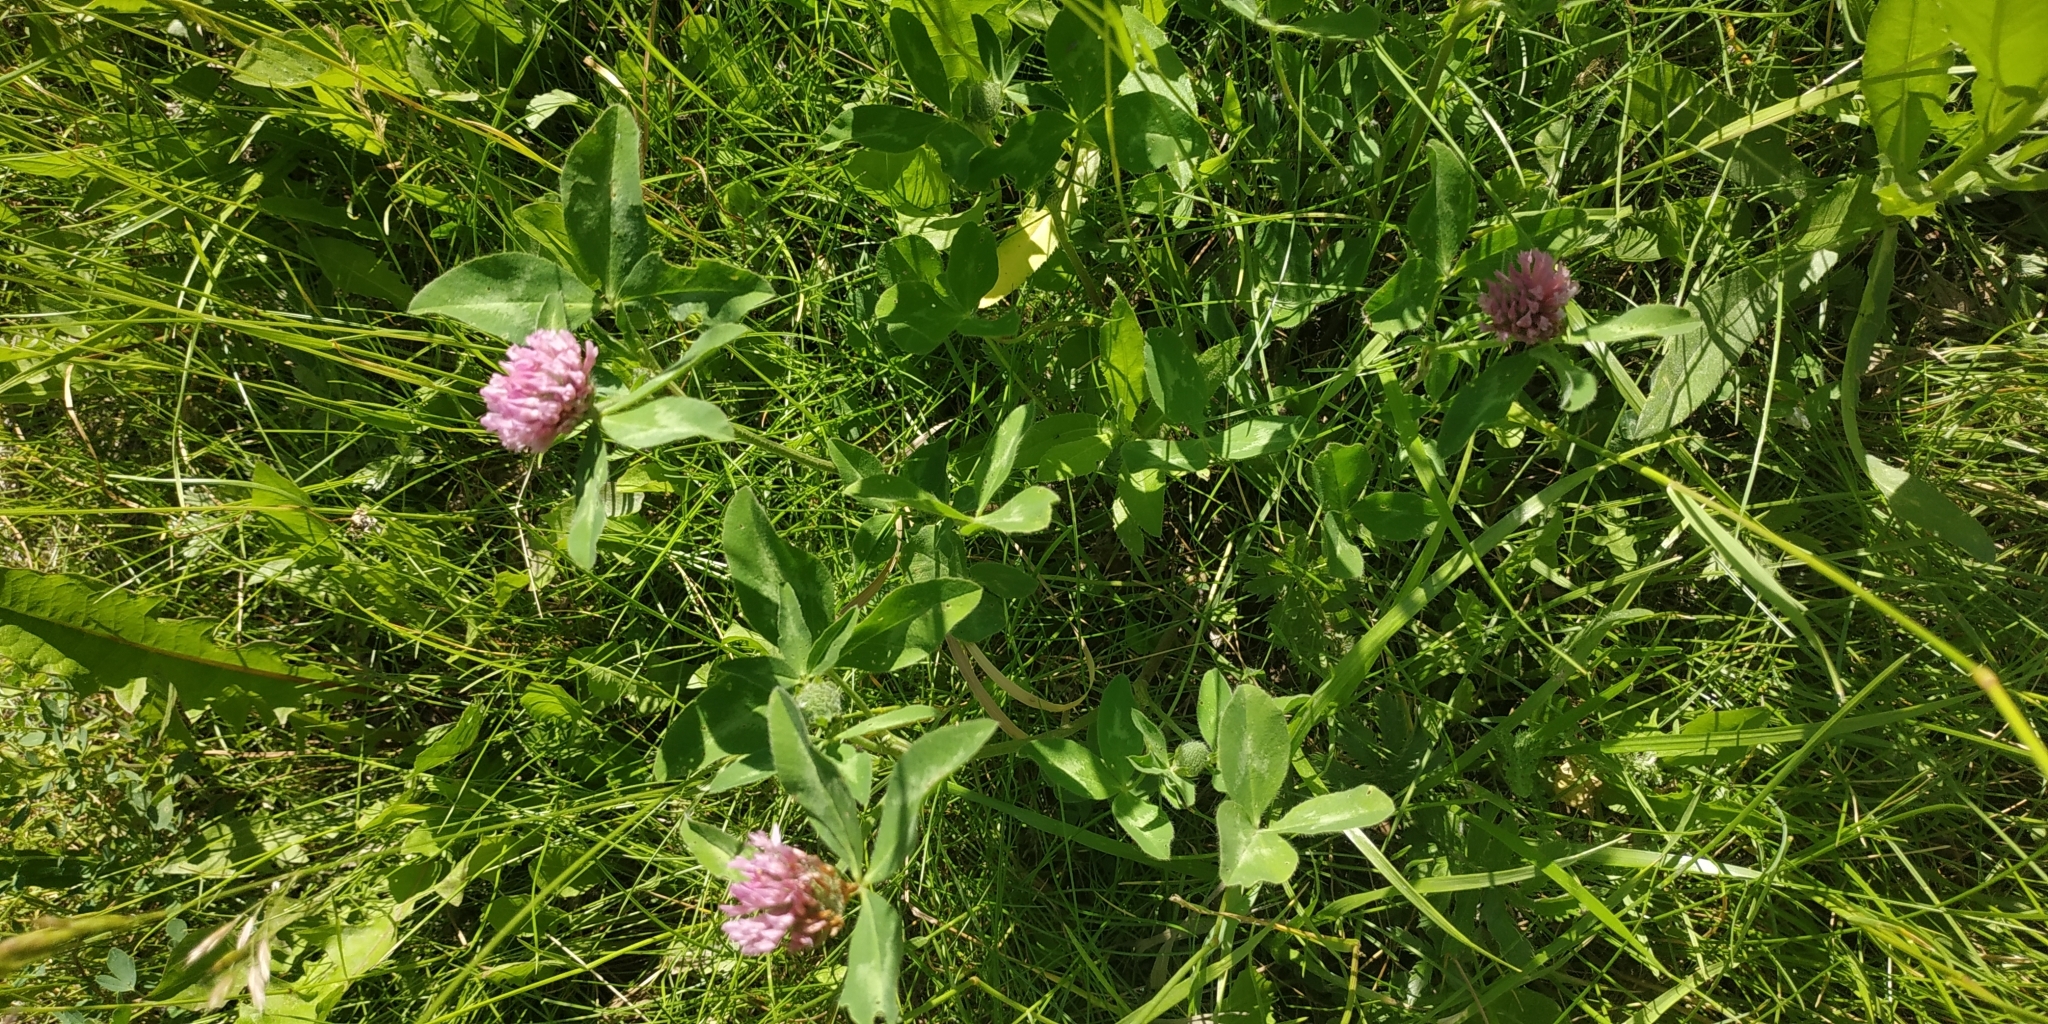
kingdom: Plantae
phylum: Tracheophyta
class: Magnoliopsida
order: Fabales
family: Fabaceae
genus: Trifolium
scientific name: Trifolium pratense
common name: Red clover
